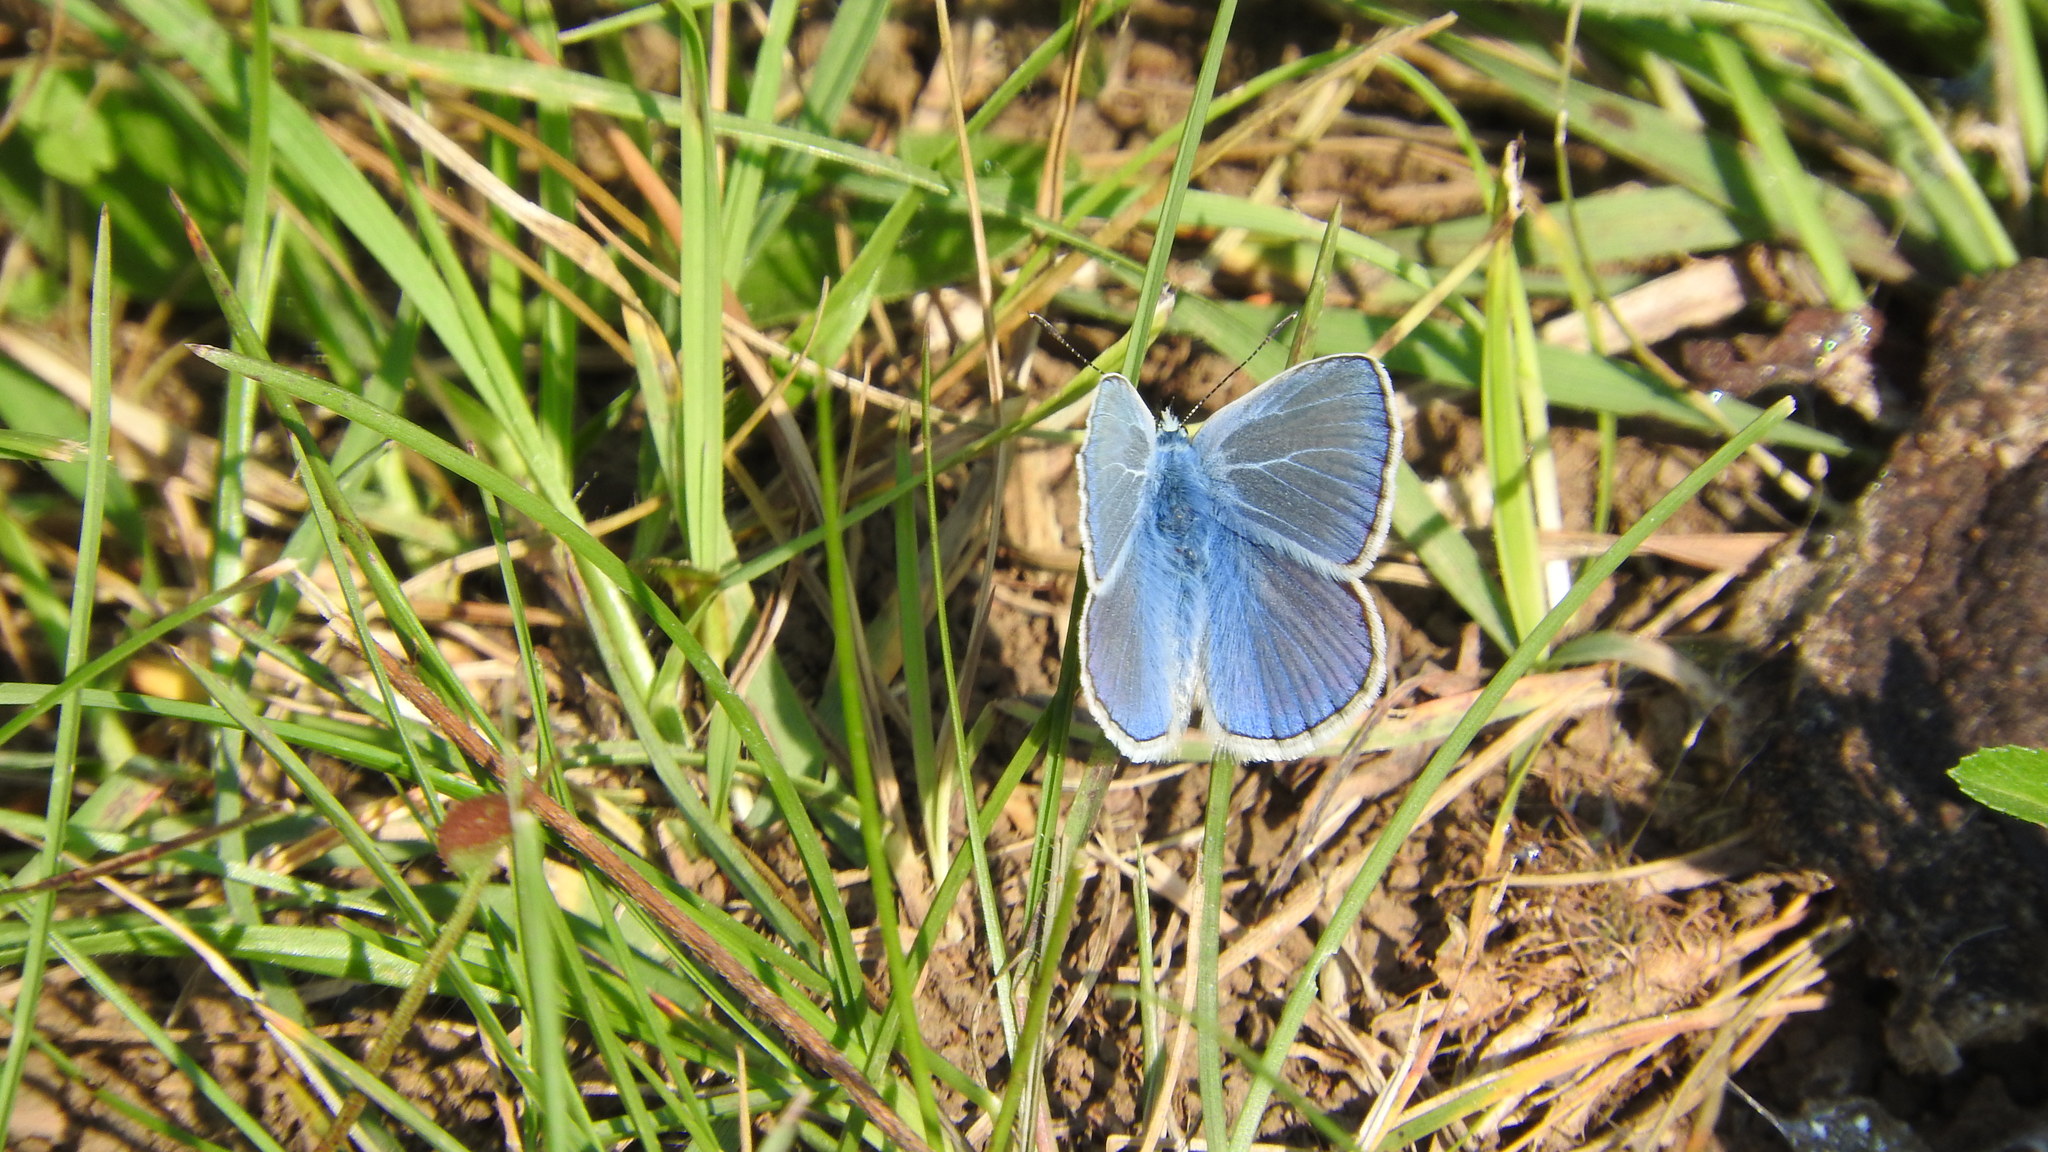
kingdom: Animalia
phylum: Arthropoda
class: Insecta
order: Lepidoptera
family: Lycaenidae
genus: Polyommatus
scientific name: Polyommatus icarus
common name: Common blue
